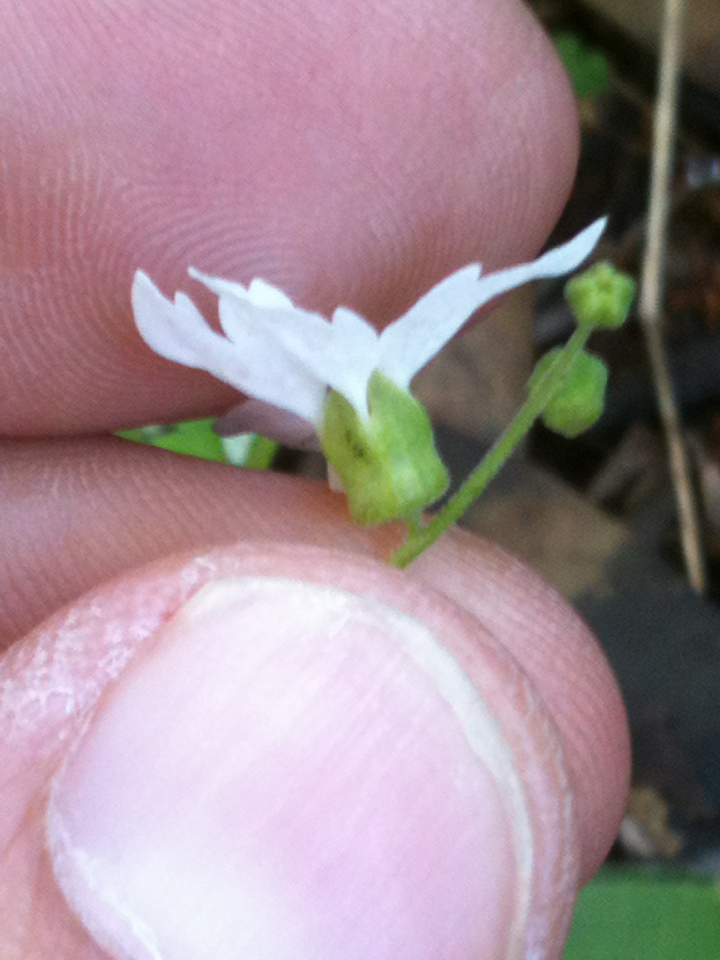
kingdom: Plantae
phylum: Tracheophyta
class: Magnoliopsida
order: Saxifragales
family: Saxifragaceae
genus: Lithophragma
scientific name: Lithophragma heterophyllum
